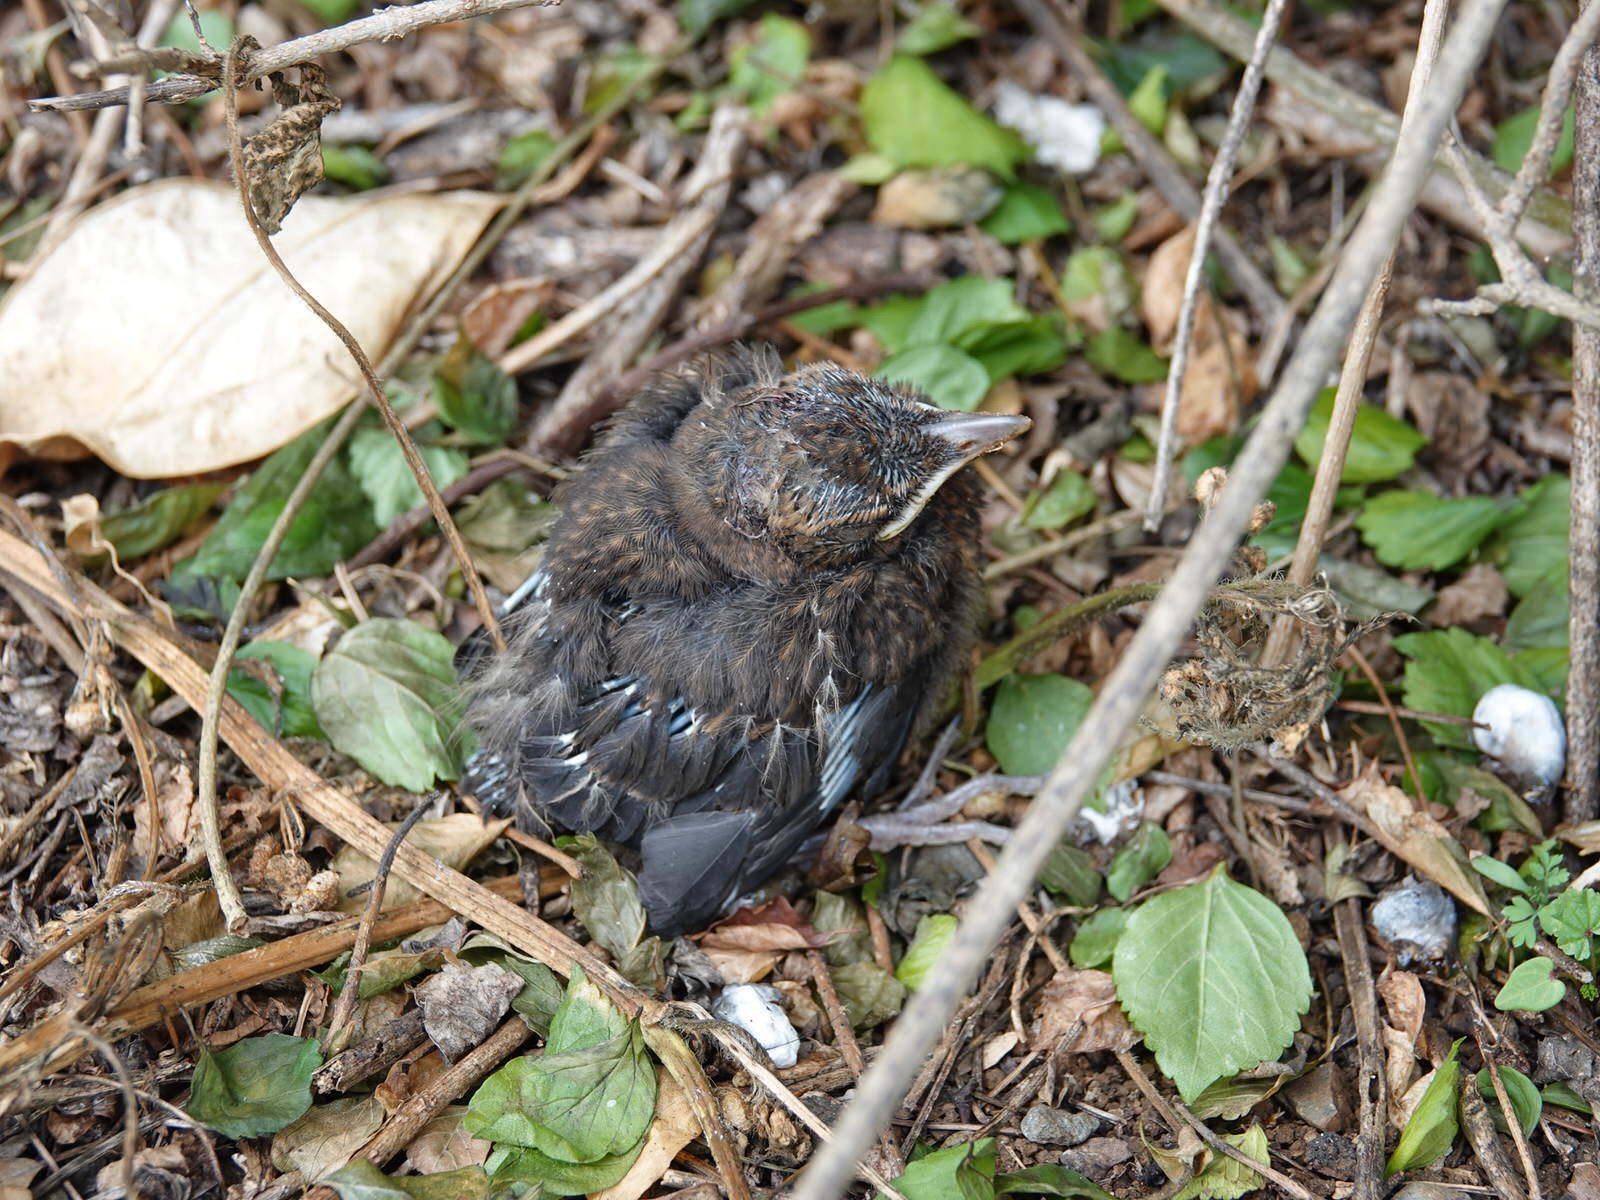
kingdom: Animalia
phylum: Chordata
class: Aves
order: Passeriformes
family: Turdidae
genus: Turdus
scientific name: Turdus merula
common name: Common blackbird
